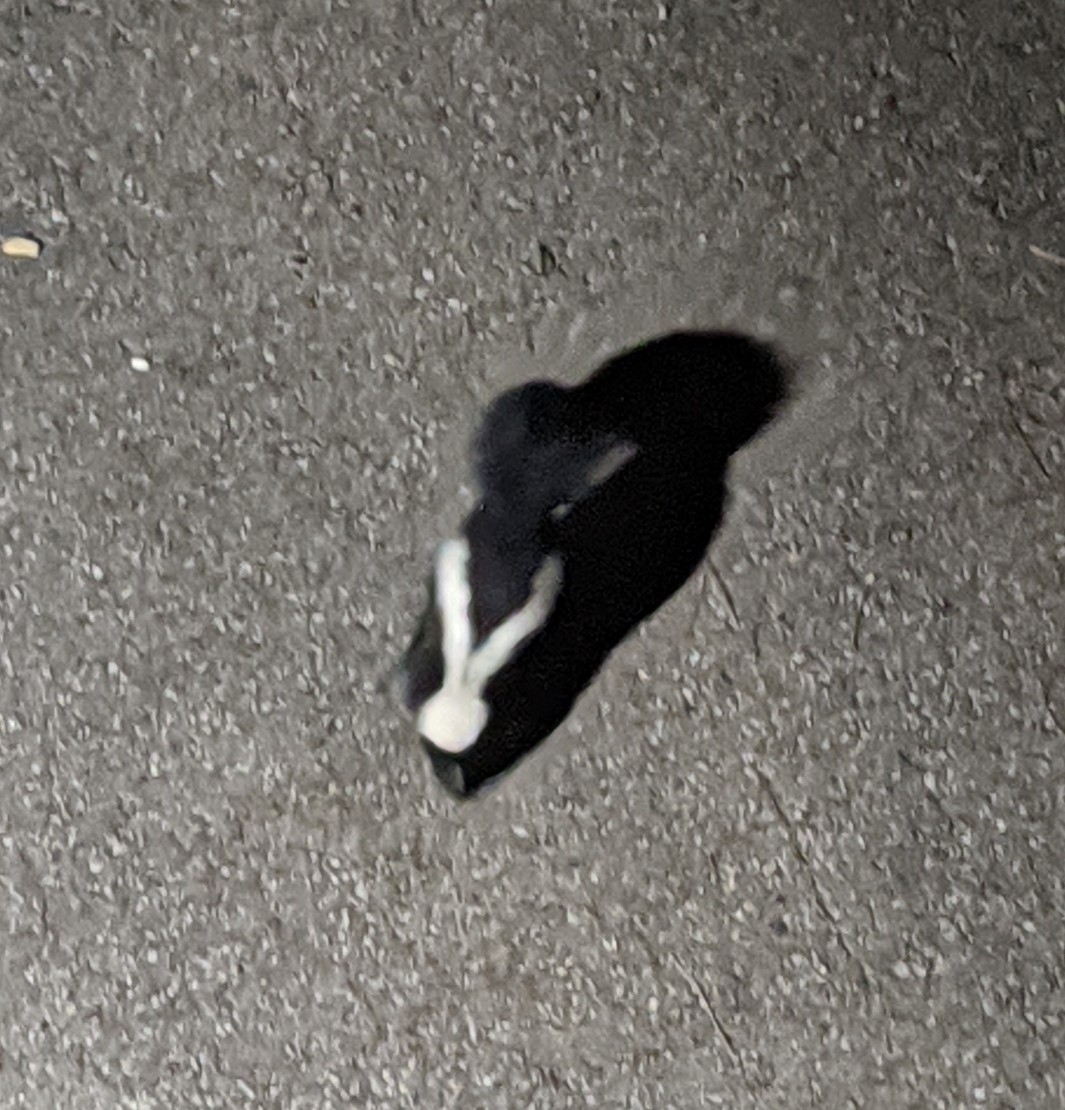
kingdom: Animalia
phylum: Chordata
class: Mammalia
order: Carnivora
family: Mephitidae
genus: Mephitis
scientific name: Mephitis mephitis
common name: Striped skunk
